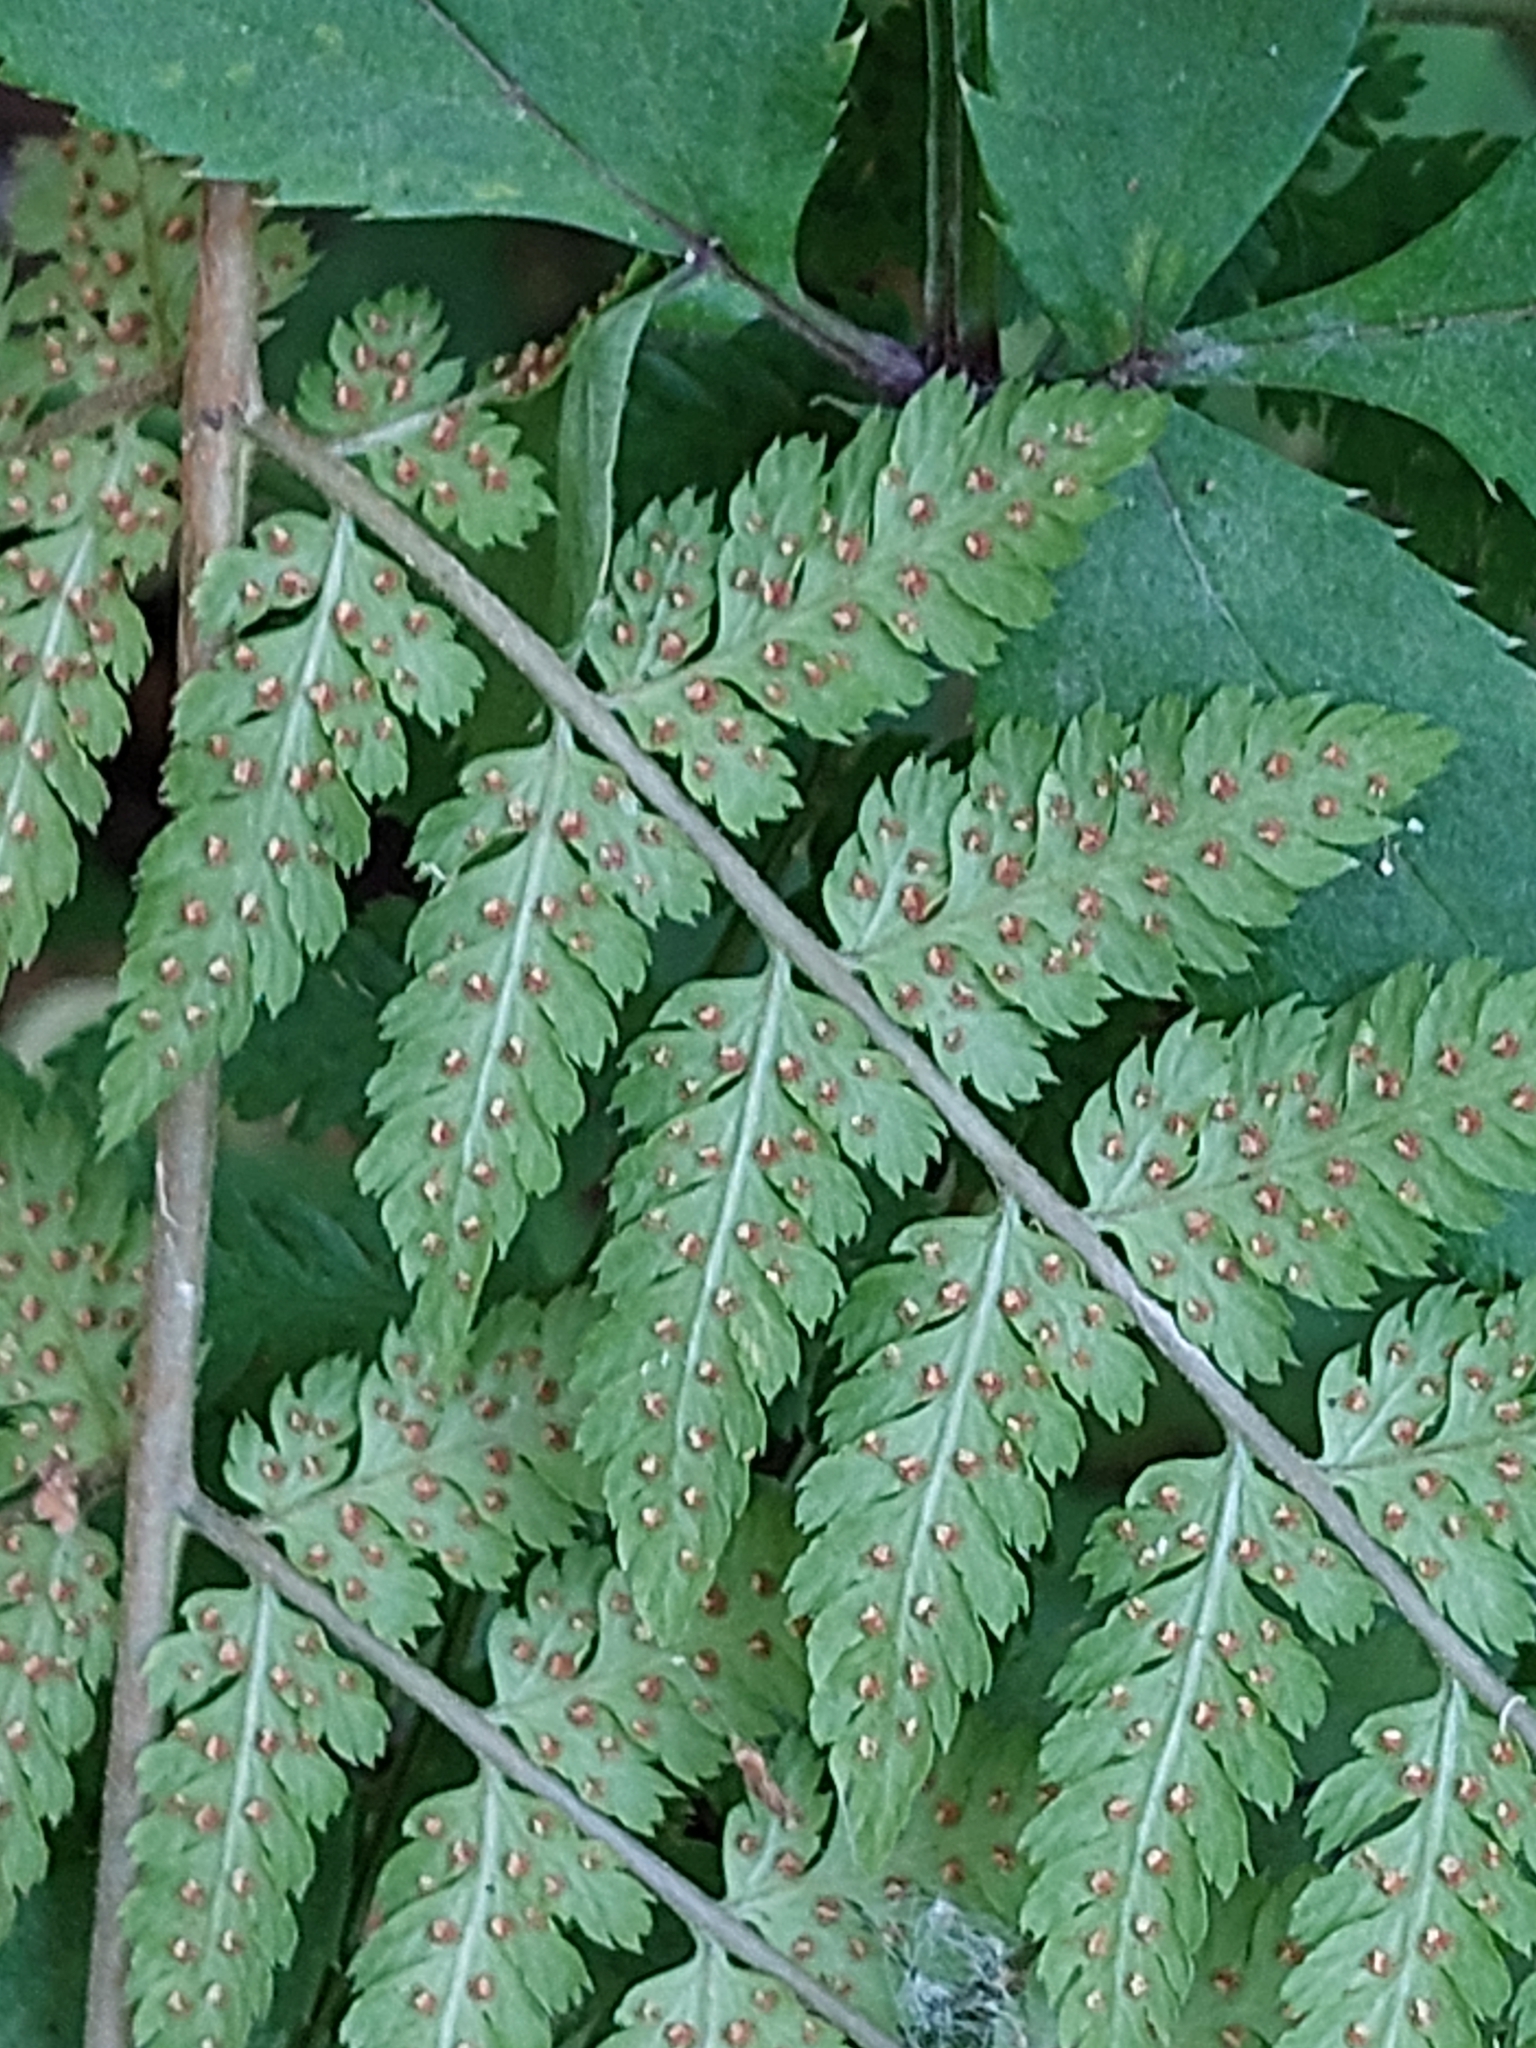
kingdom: Plantae
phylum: Tracheophyta
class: Polypodiopsida
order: Polypodiales
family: Dryopteridaceae
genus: Dryopteris
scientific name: Dryopteris carthusiana
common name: Narrow buckler-fern
